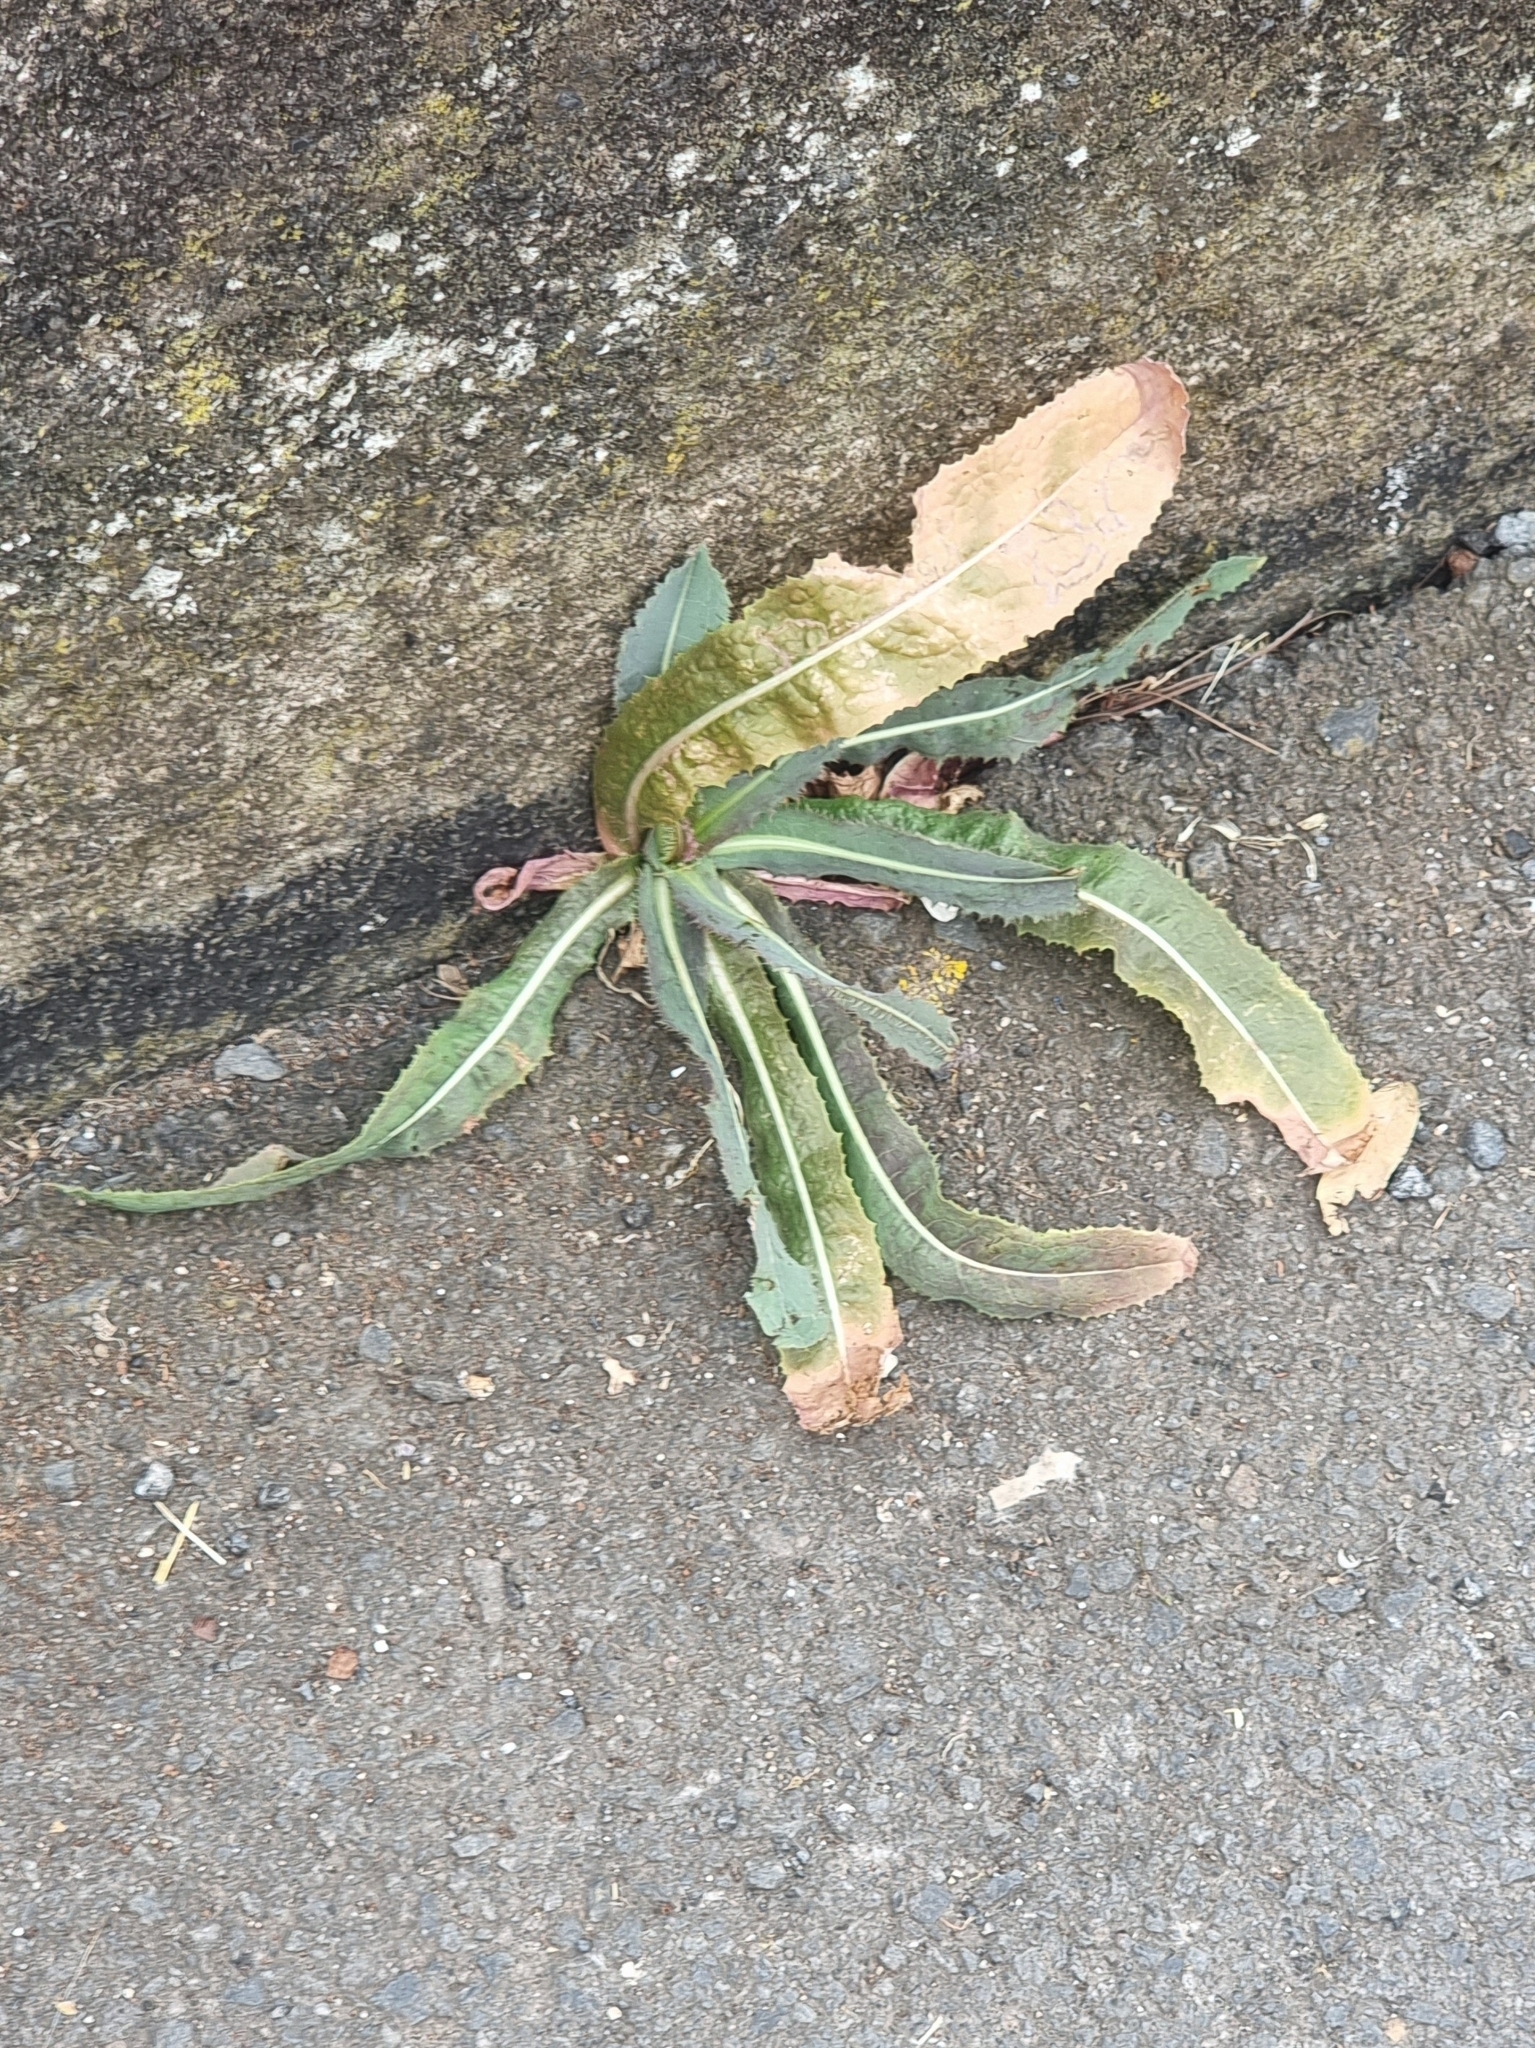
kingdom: Plantae
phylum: Tracheophyta
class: Magnoliopsida
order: Asterales
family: Asteraceae
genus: Lactuca
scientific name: Lactuca serriola
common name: Prickly lettuce
